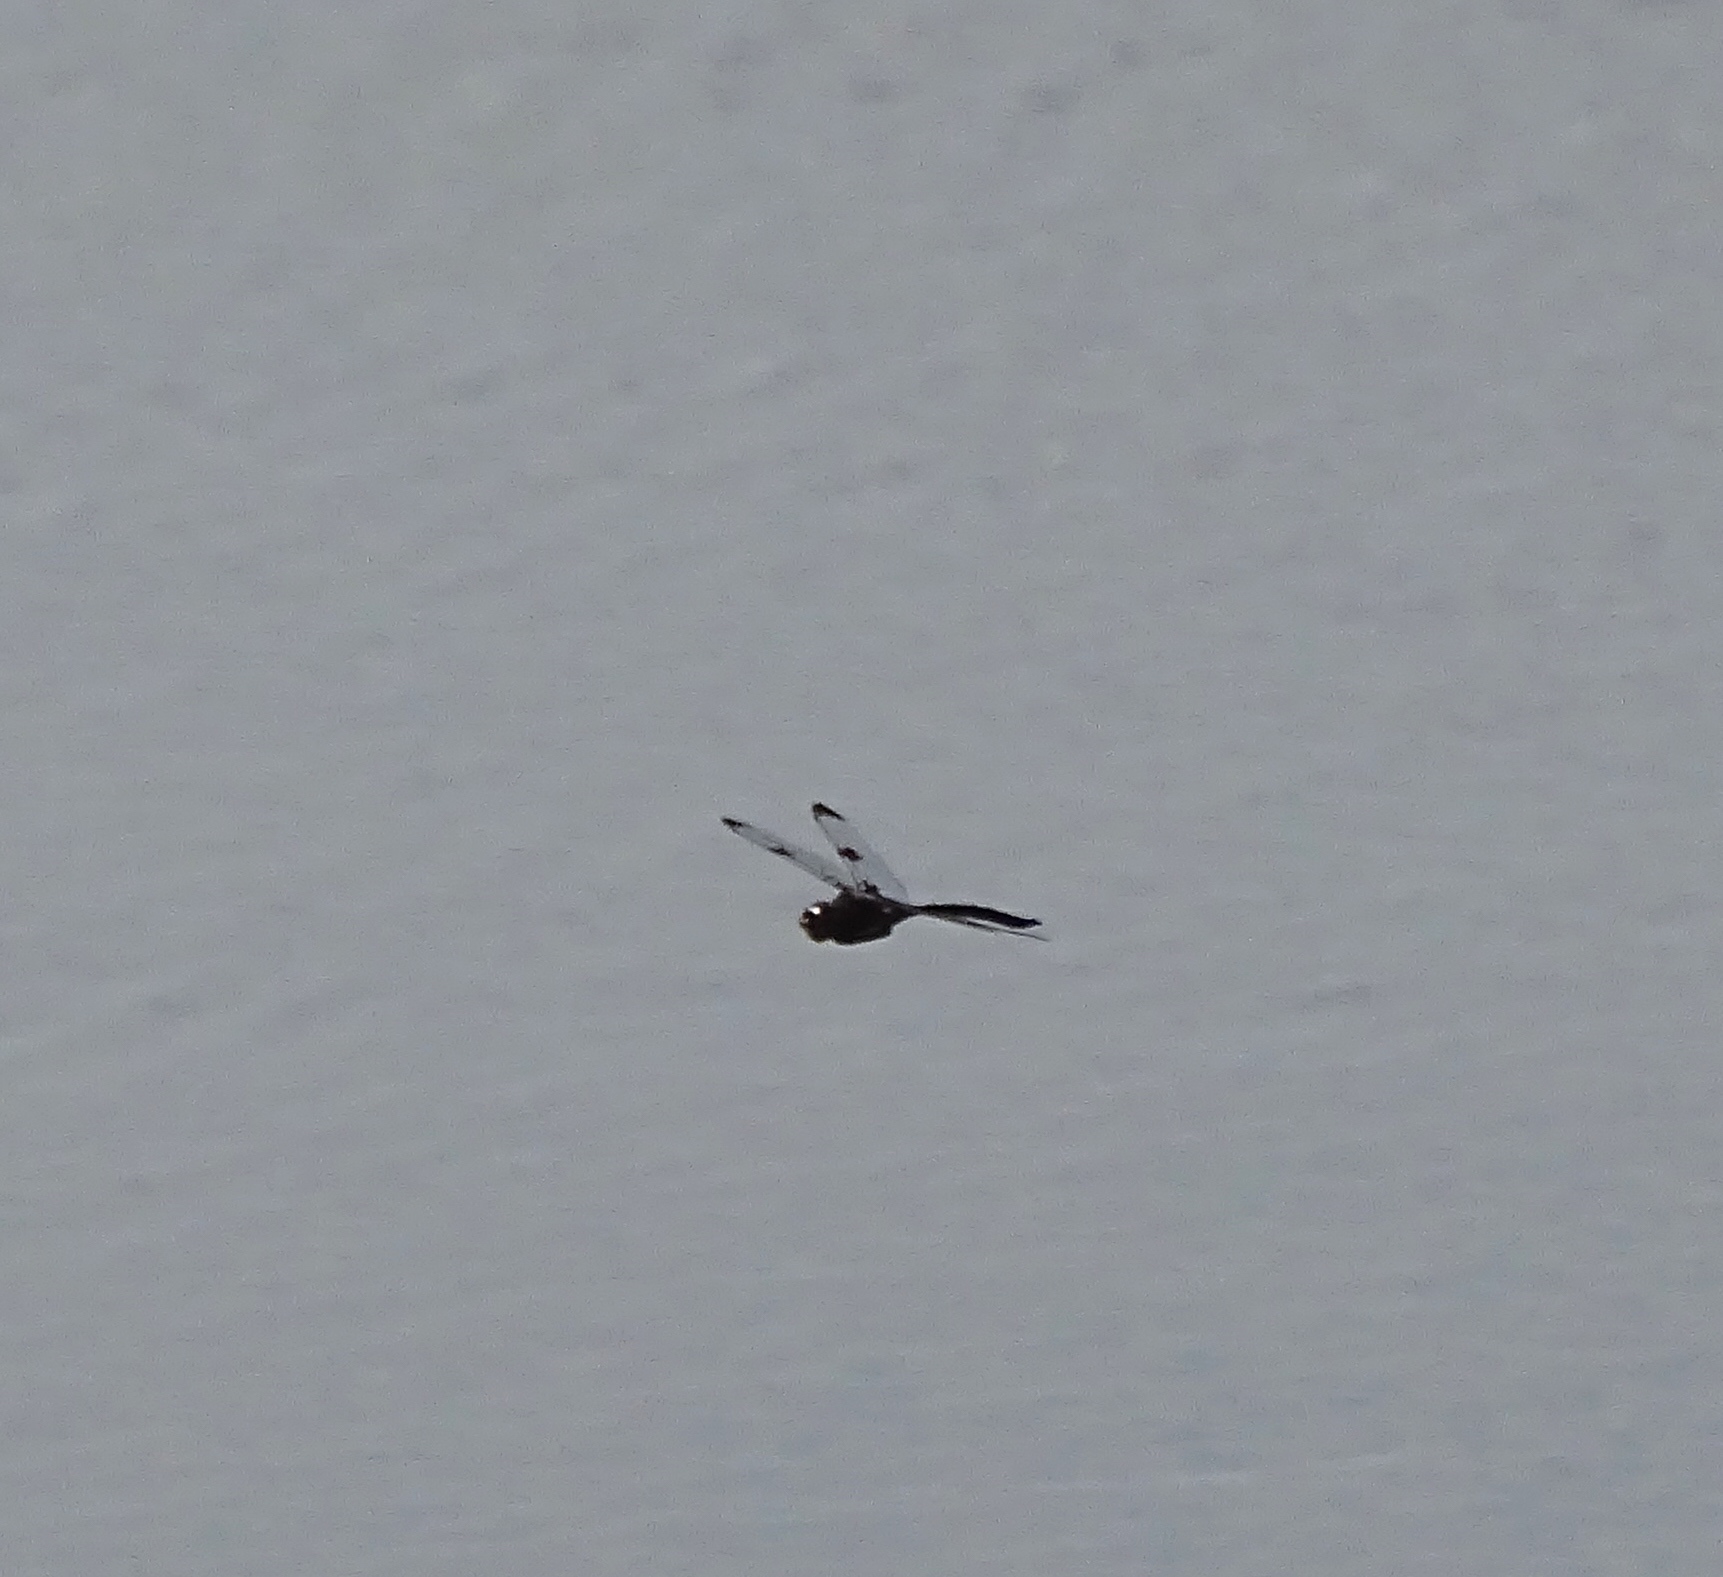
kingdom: Animalia
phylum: Arthropoda
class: Insecta
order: Odonata
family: Corduliidae
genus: Epitheca
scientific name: Epitheca princeps
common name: Prince baskettail
